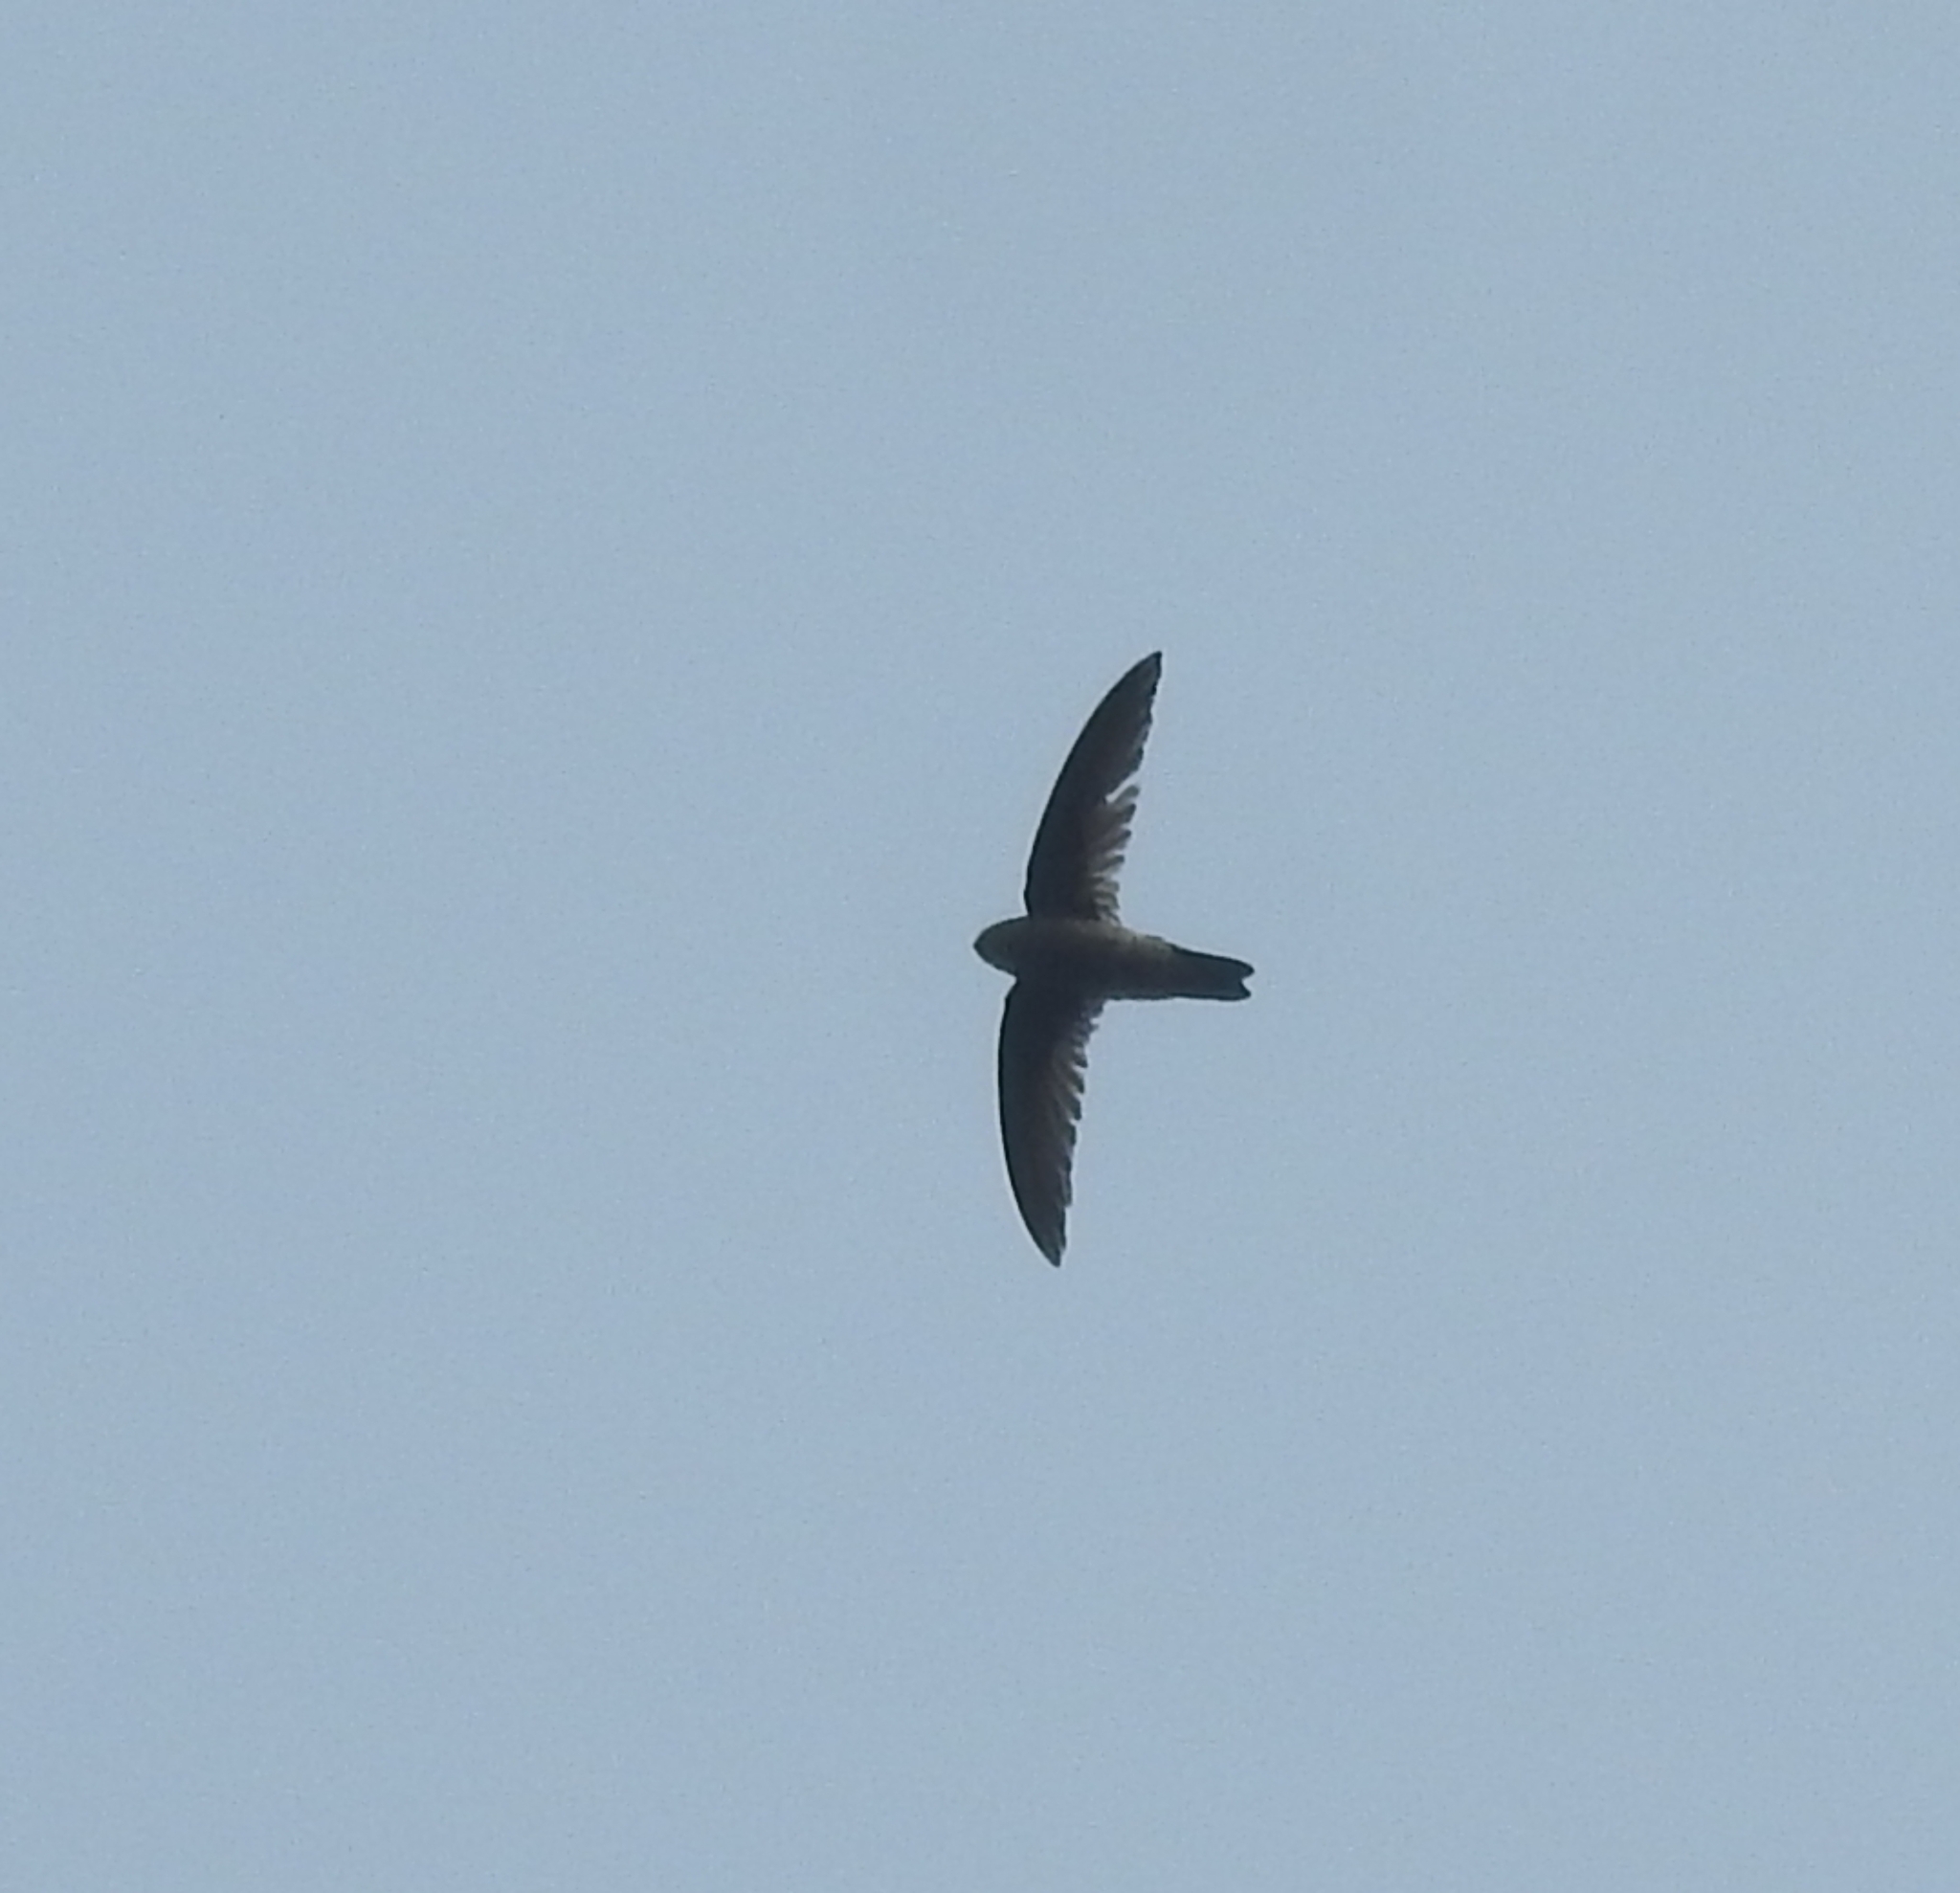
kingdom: Animalia
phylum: Chordata
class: Aves
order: Apodiformes
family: Apodidae
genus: Aerodramus
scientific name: Aerodramus unicolor
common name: Indian swiftlet
